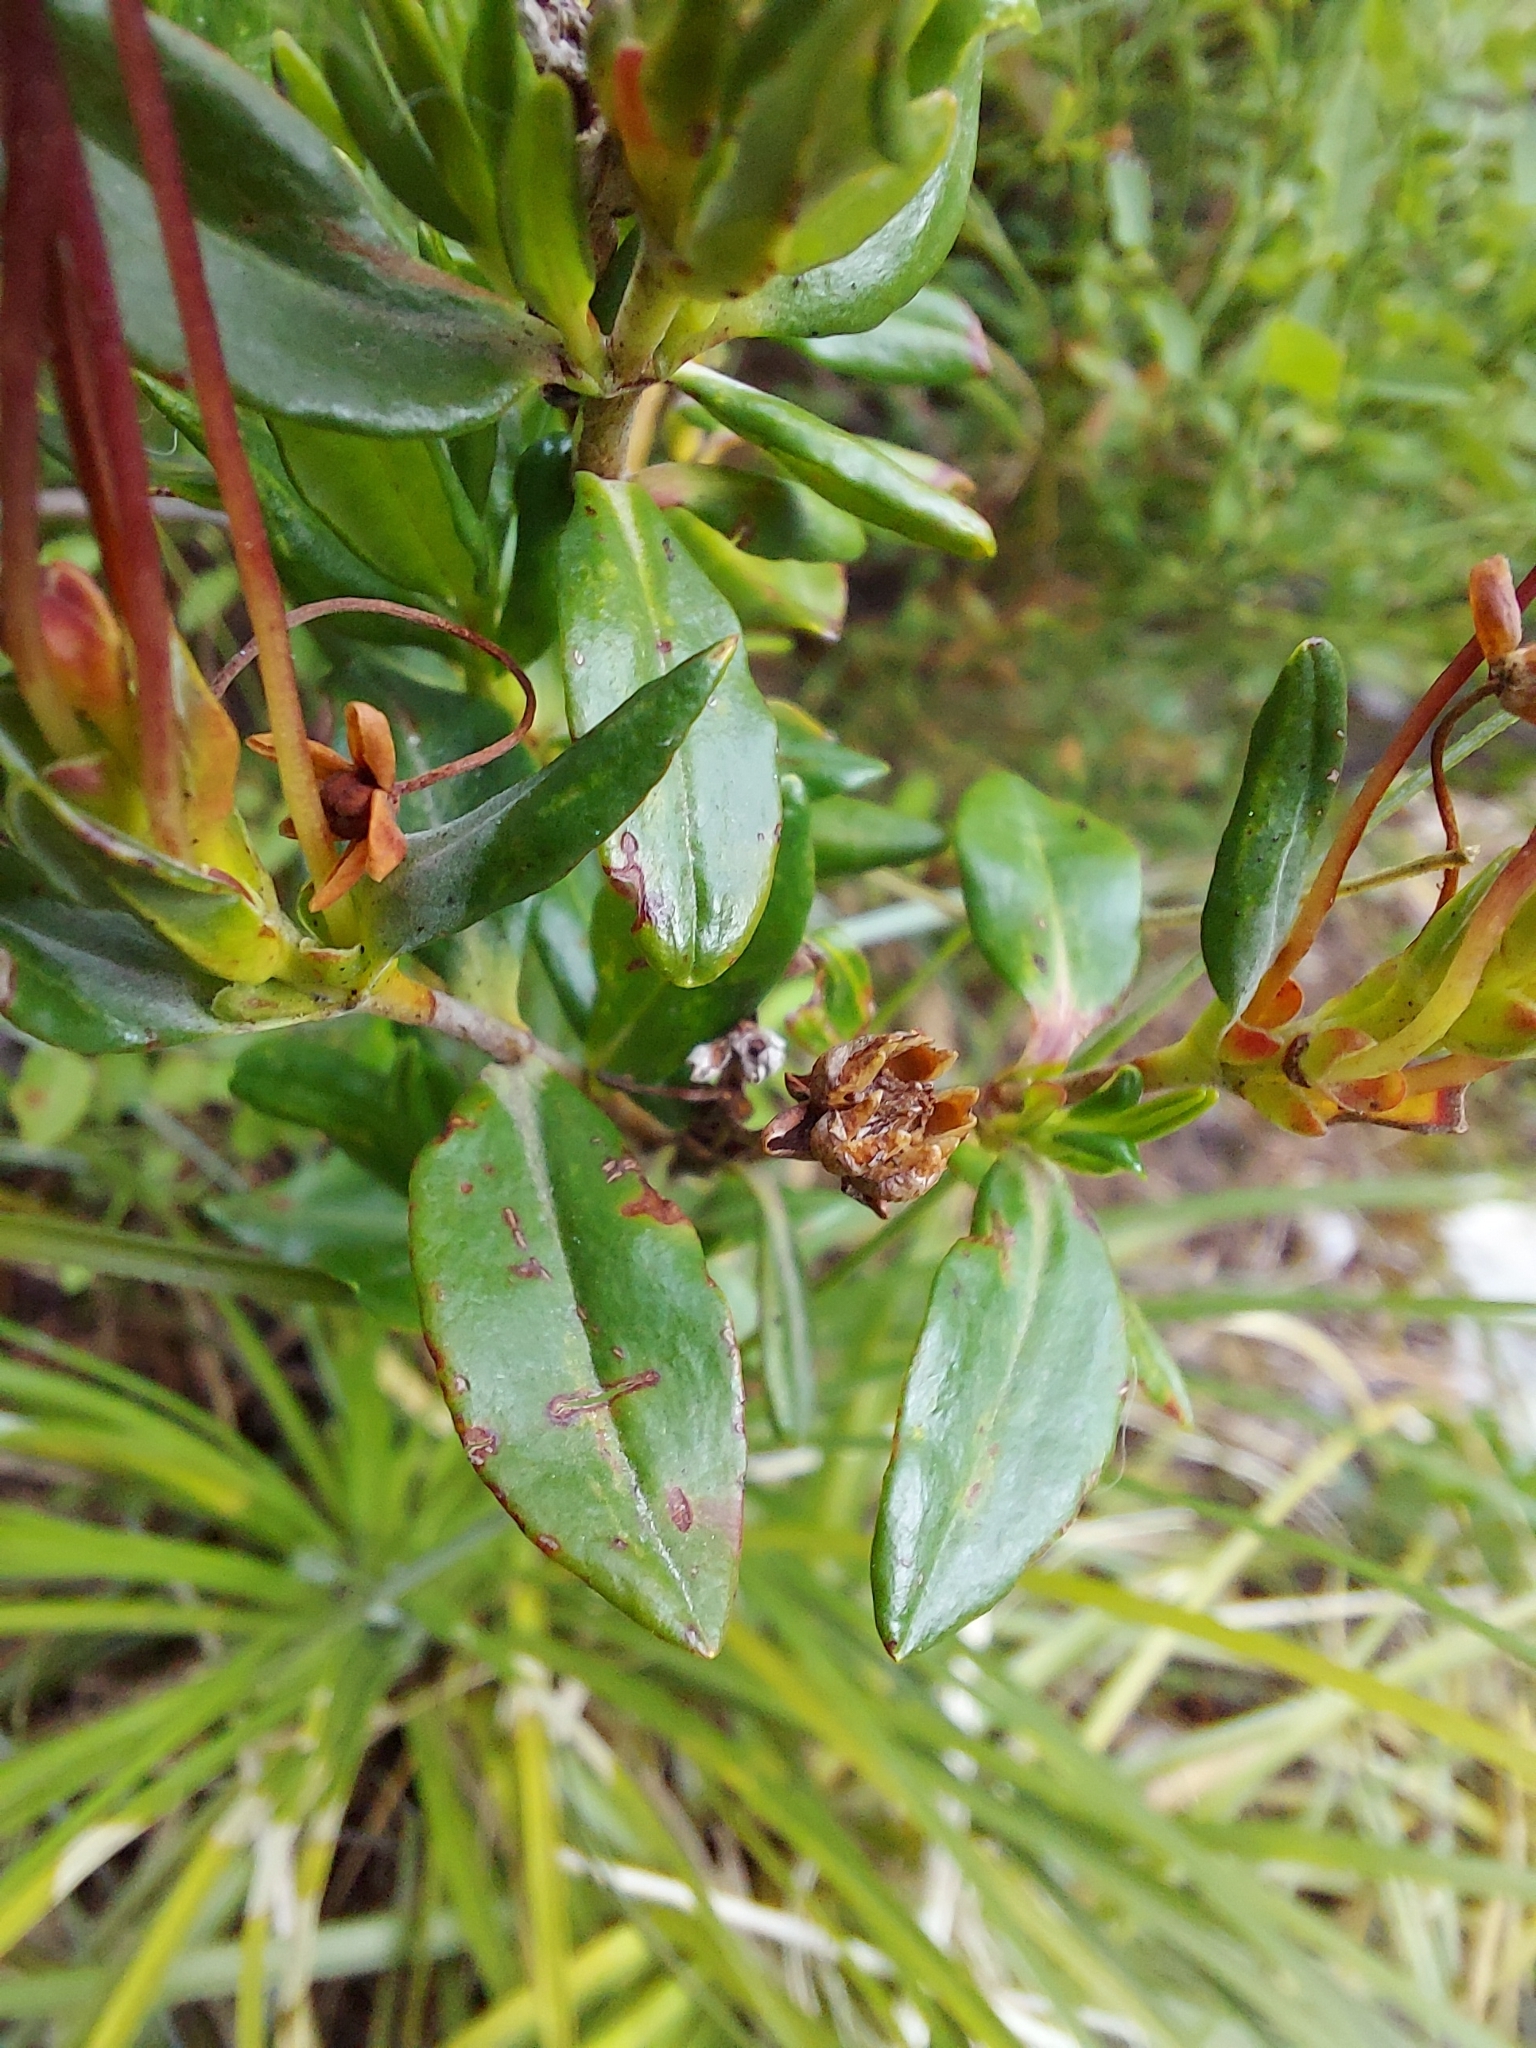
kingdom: Plantae
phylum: Tracheophyta
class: Magnoliopsida
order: Ericales
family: Ericaceae
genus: Kalmia
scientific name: Kalmia microphylla
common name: Alpine bog laurel
